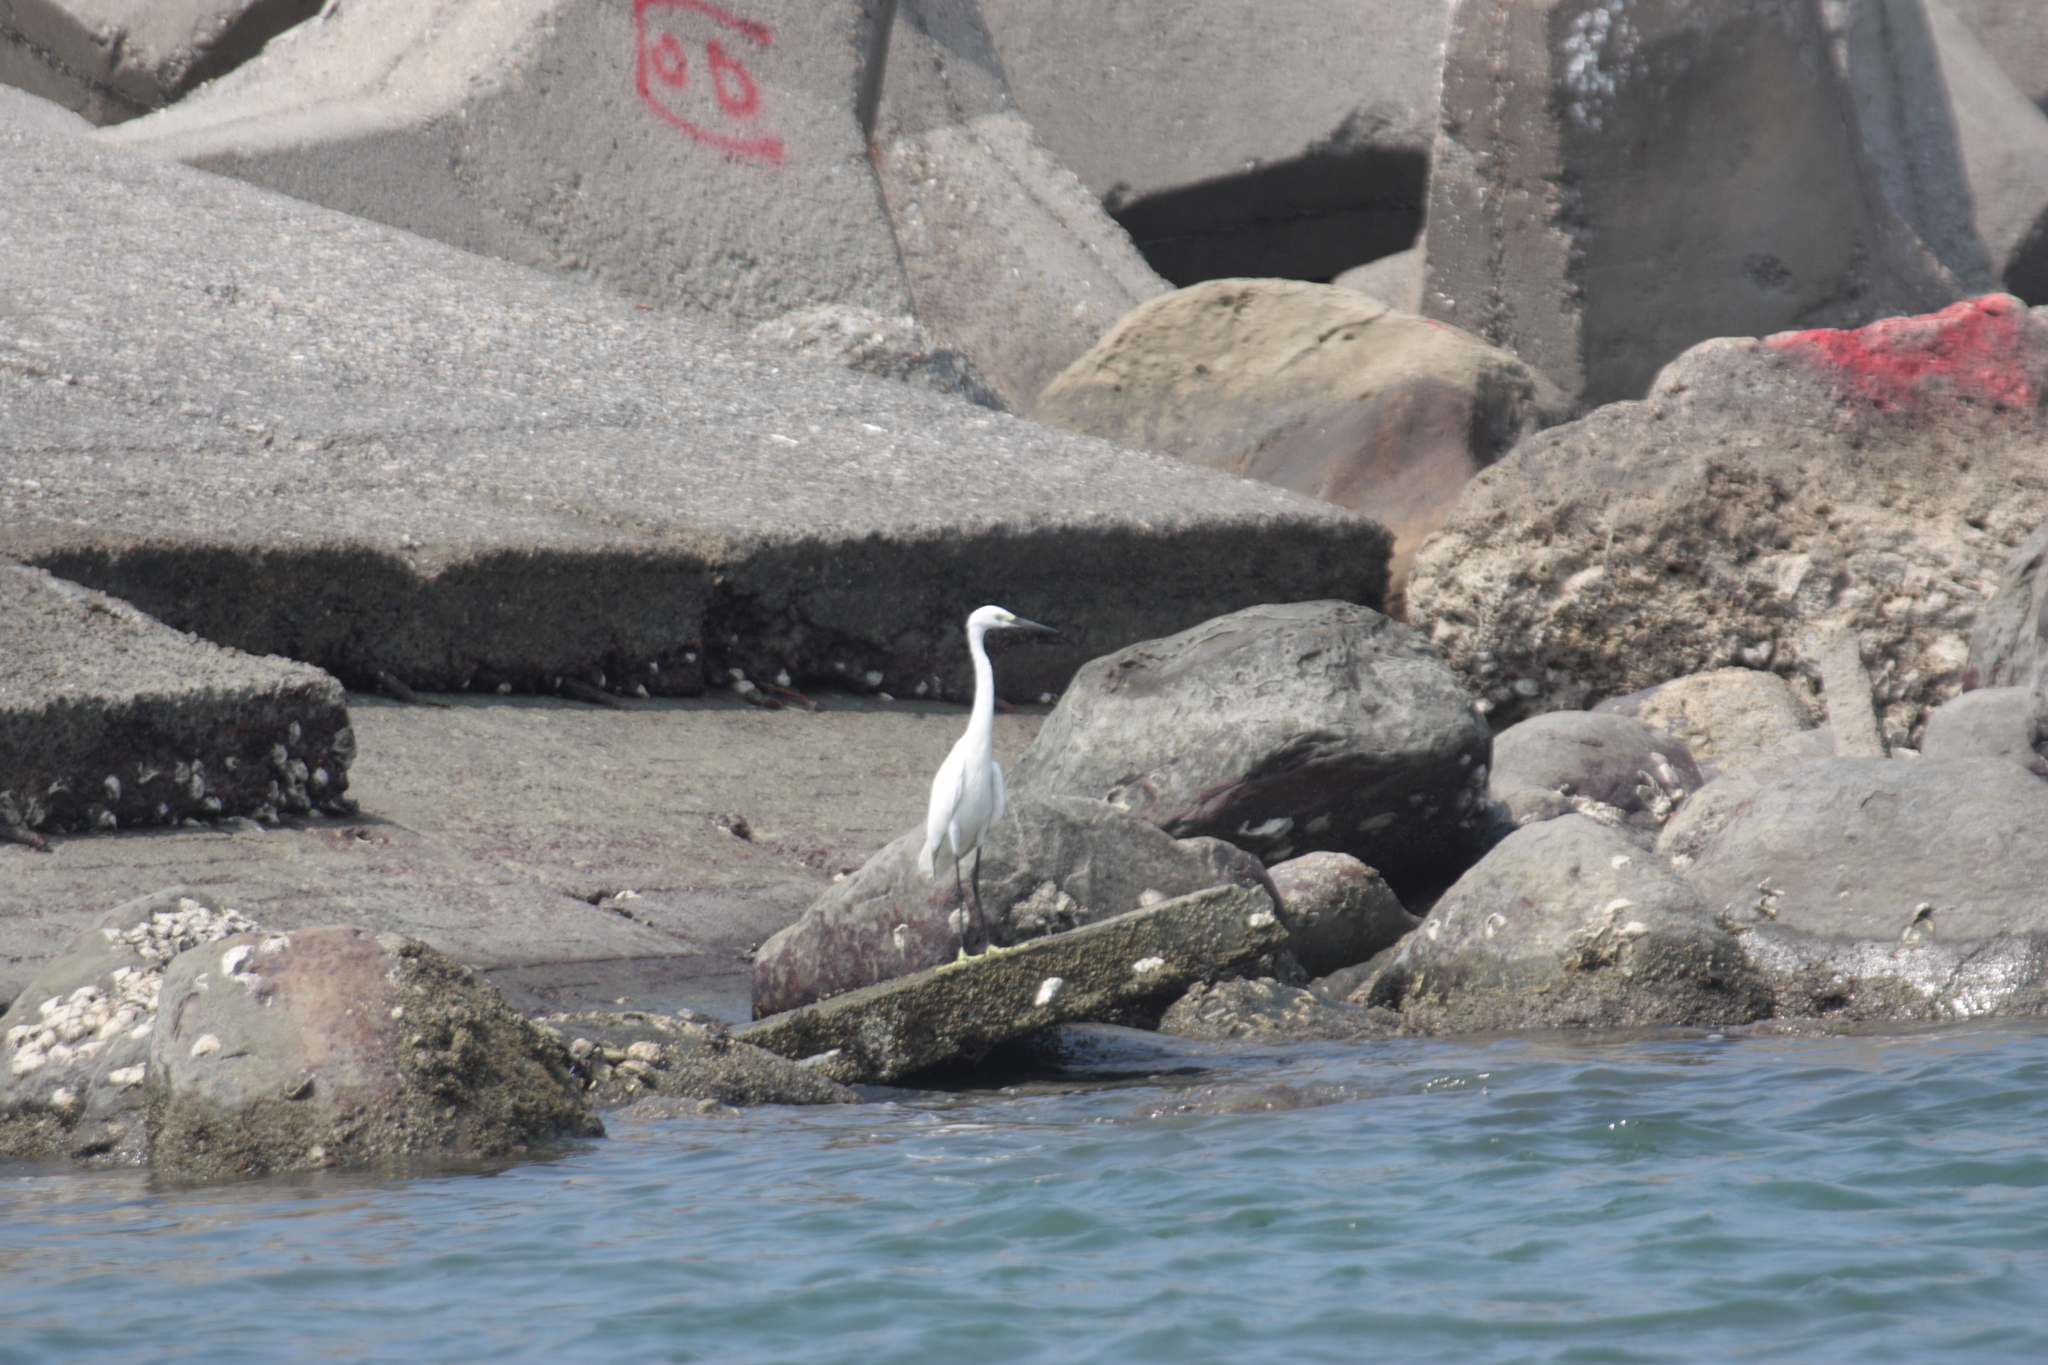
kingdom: Animalia
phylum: Chordata
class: Aves
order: Pelecaniformes
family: Ardeidae
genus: Egretta
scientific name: Egretta garzetta
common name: Little egret
